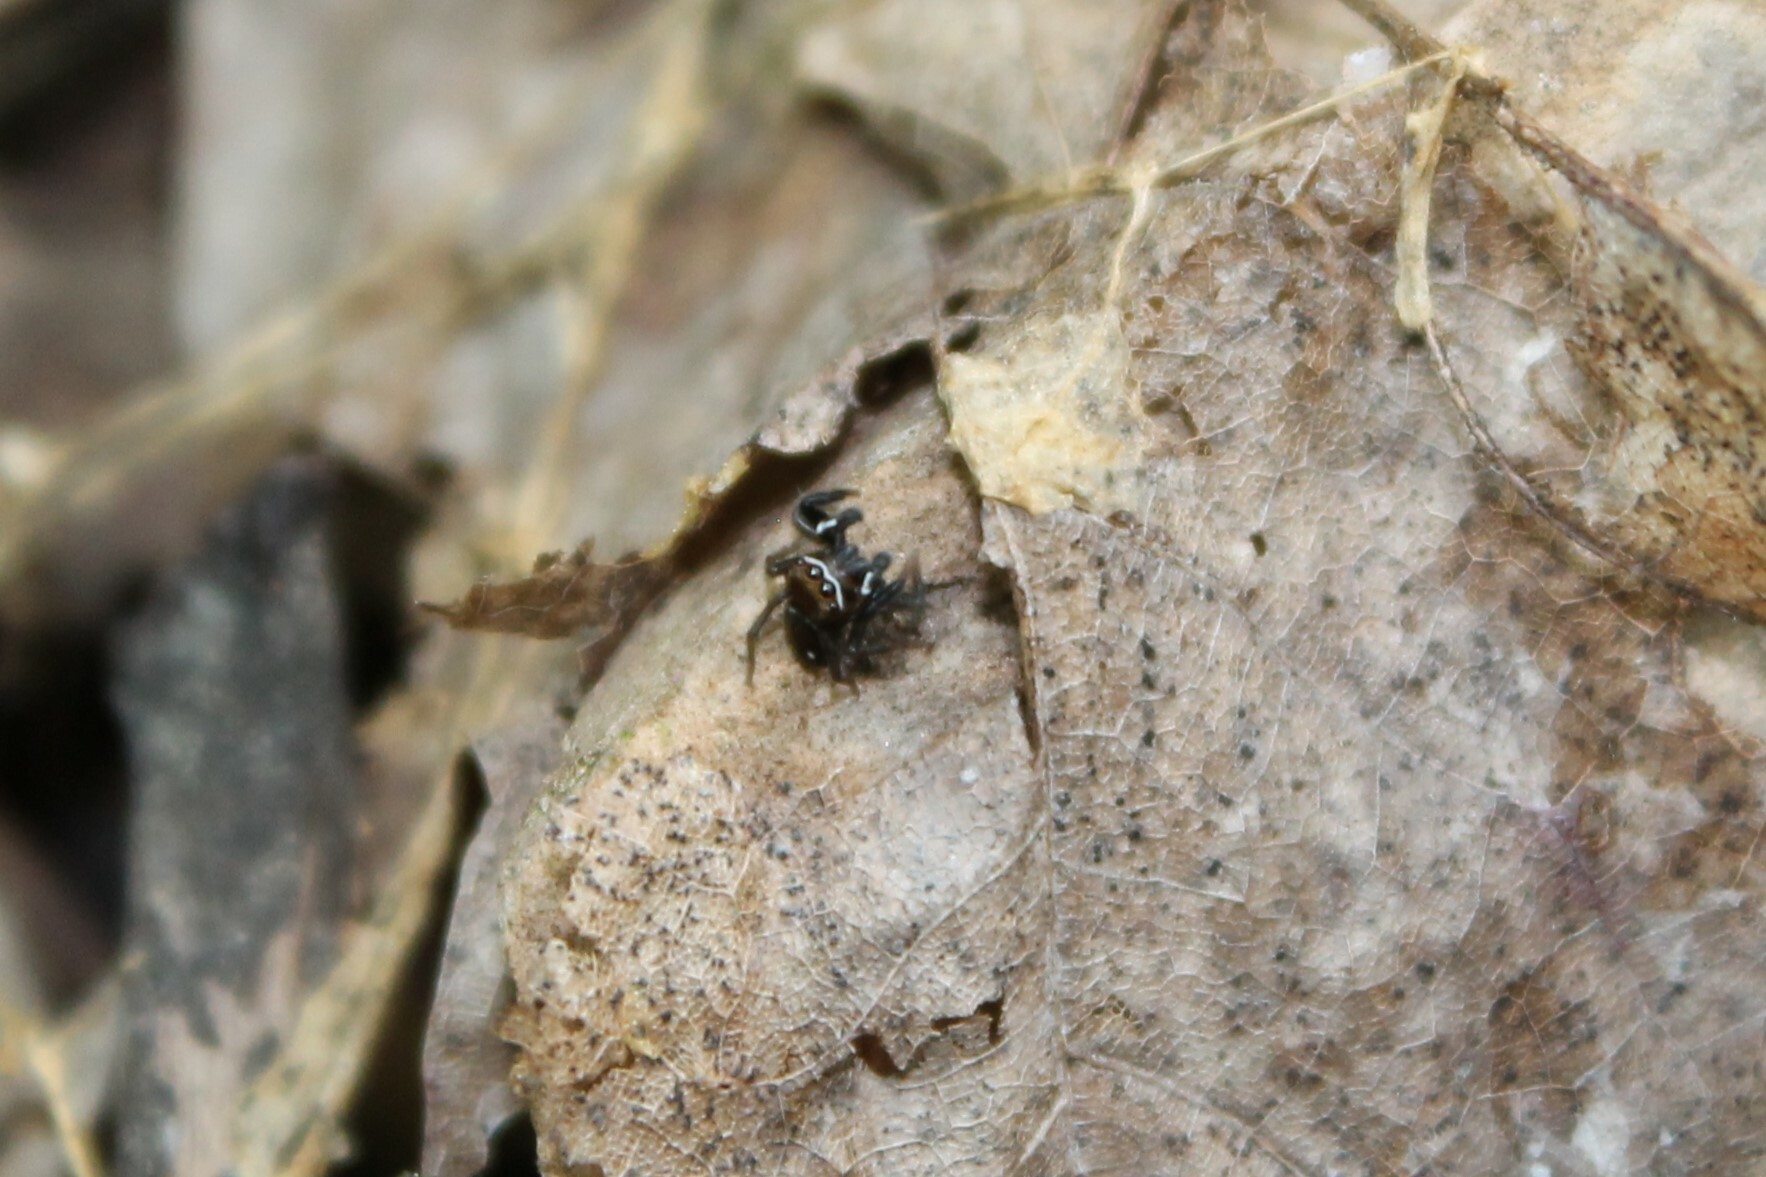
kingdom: Animalia
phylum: Arthropoda
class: Arachnida
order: Araneae
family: Salticidae
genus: Chinattus
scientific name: Chinattus parvulus
